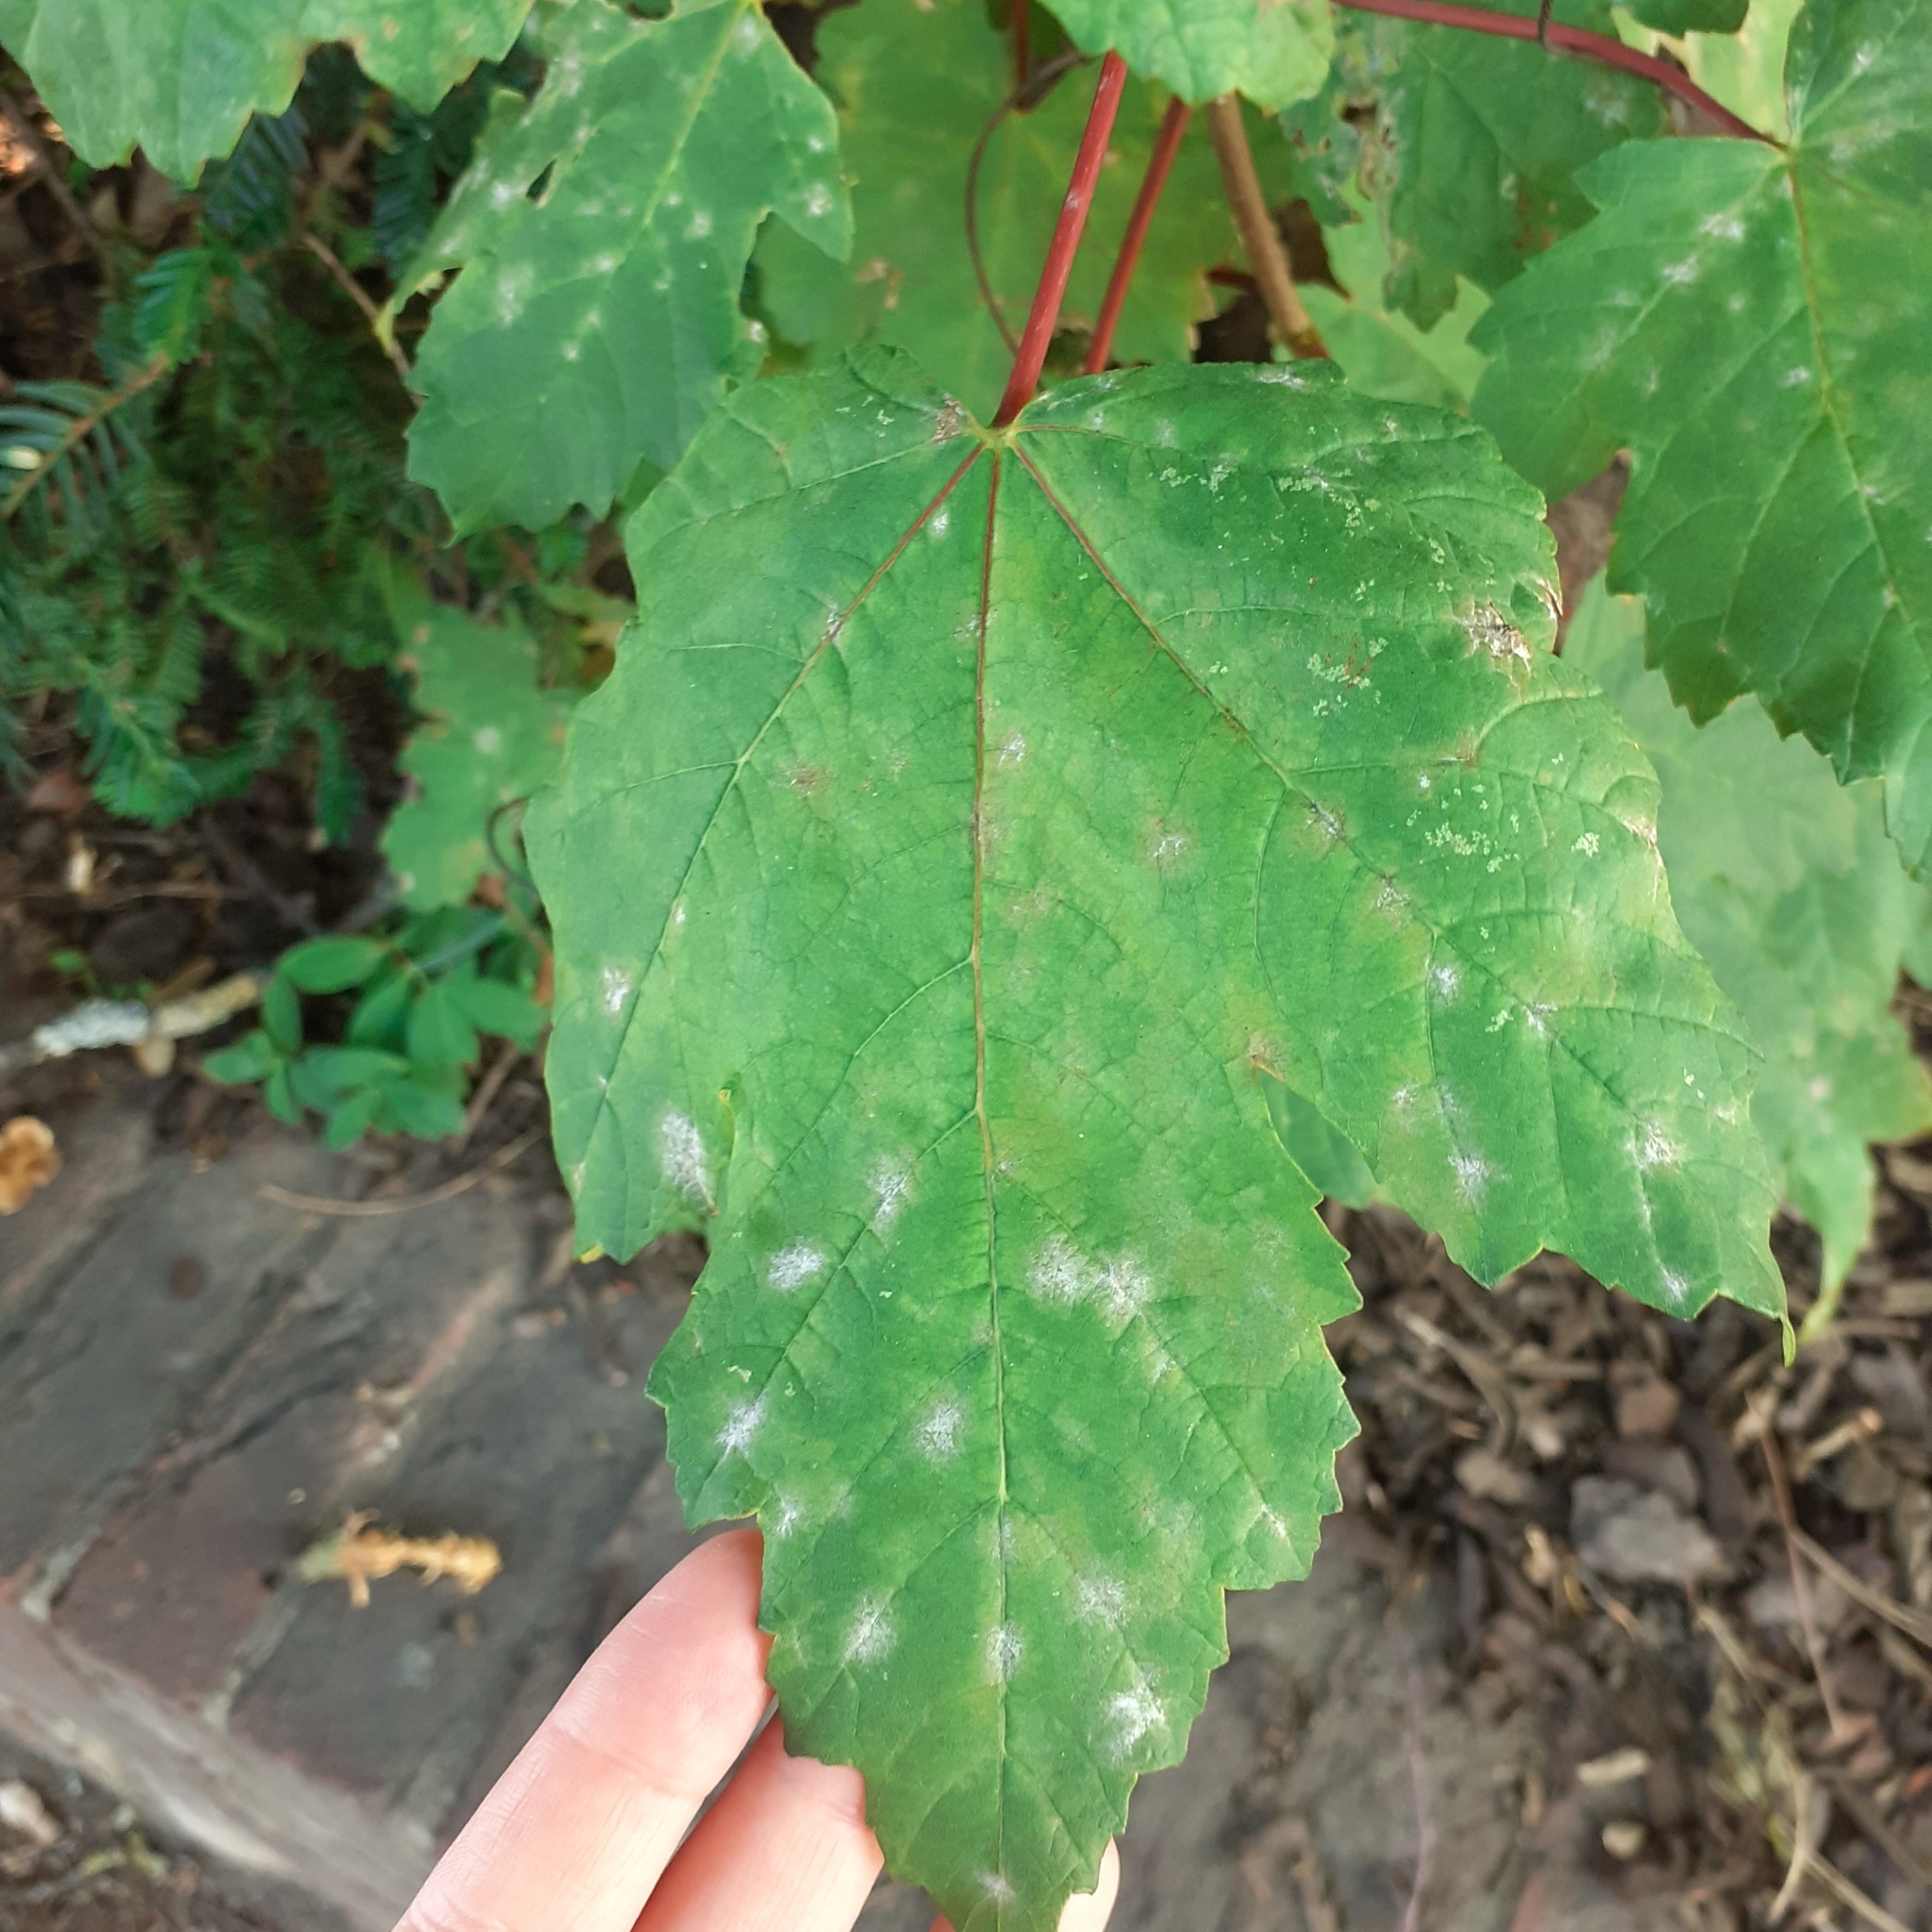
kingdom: Fungi
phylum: Ascomycota
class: Leotiomycetes
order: Helotiales
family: Erysiphaceae
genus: Sawadaea
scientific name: Sawadaea bicornis
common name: Maple mildew
